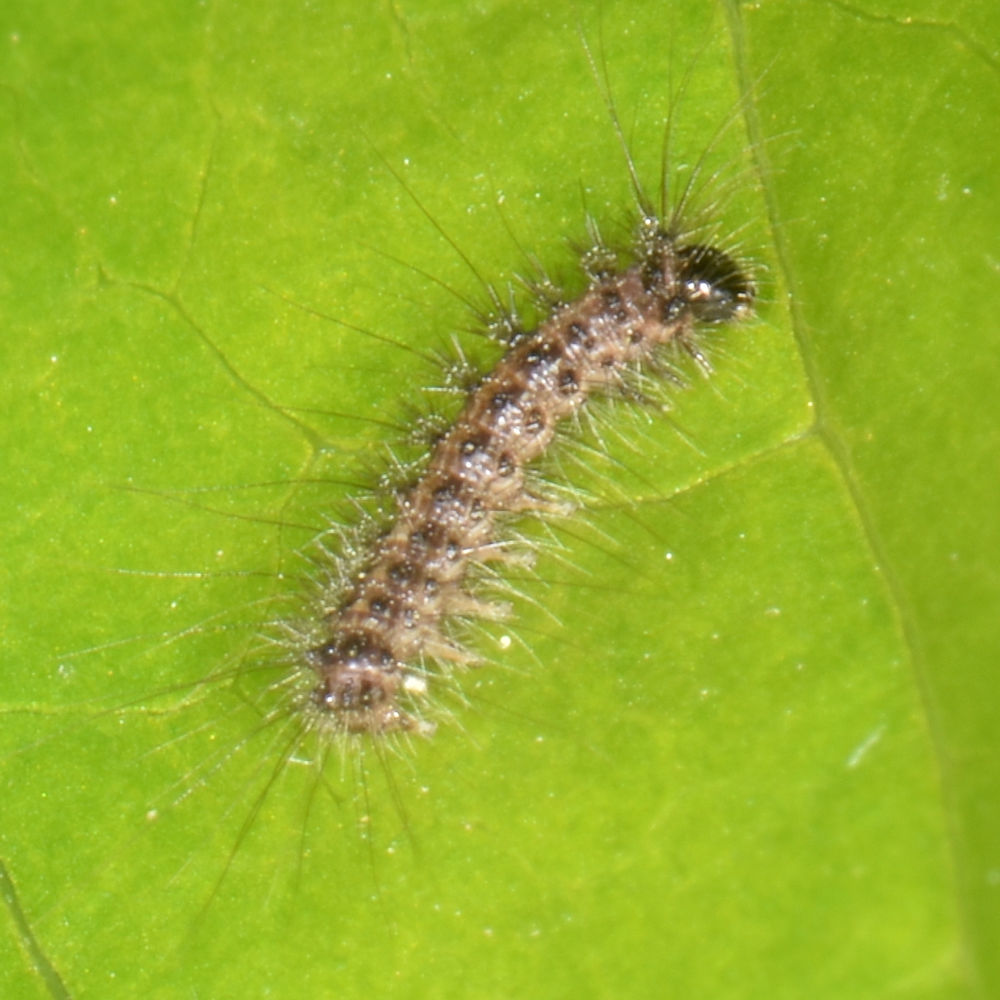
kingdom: Animalia
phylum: Arthropoda
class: Insecta
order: Lepidoptera
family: Erebidae
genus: Lymantria
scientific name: Lymantria dispar
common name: Gypsy moth
